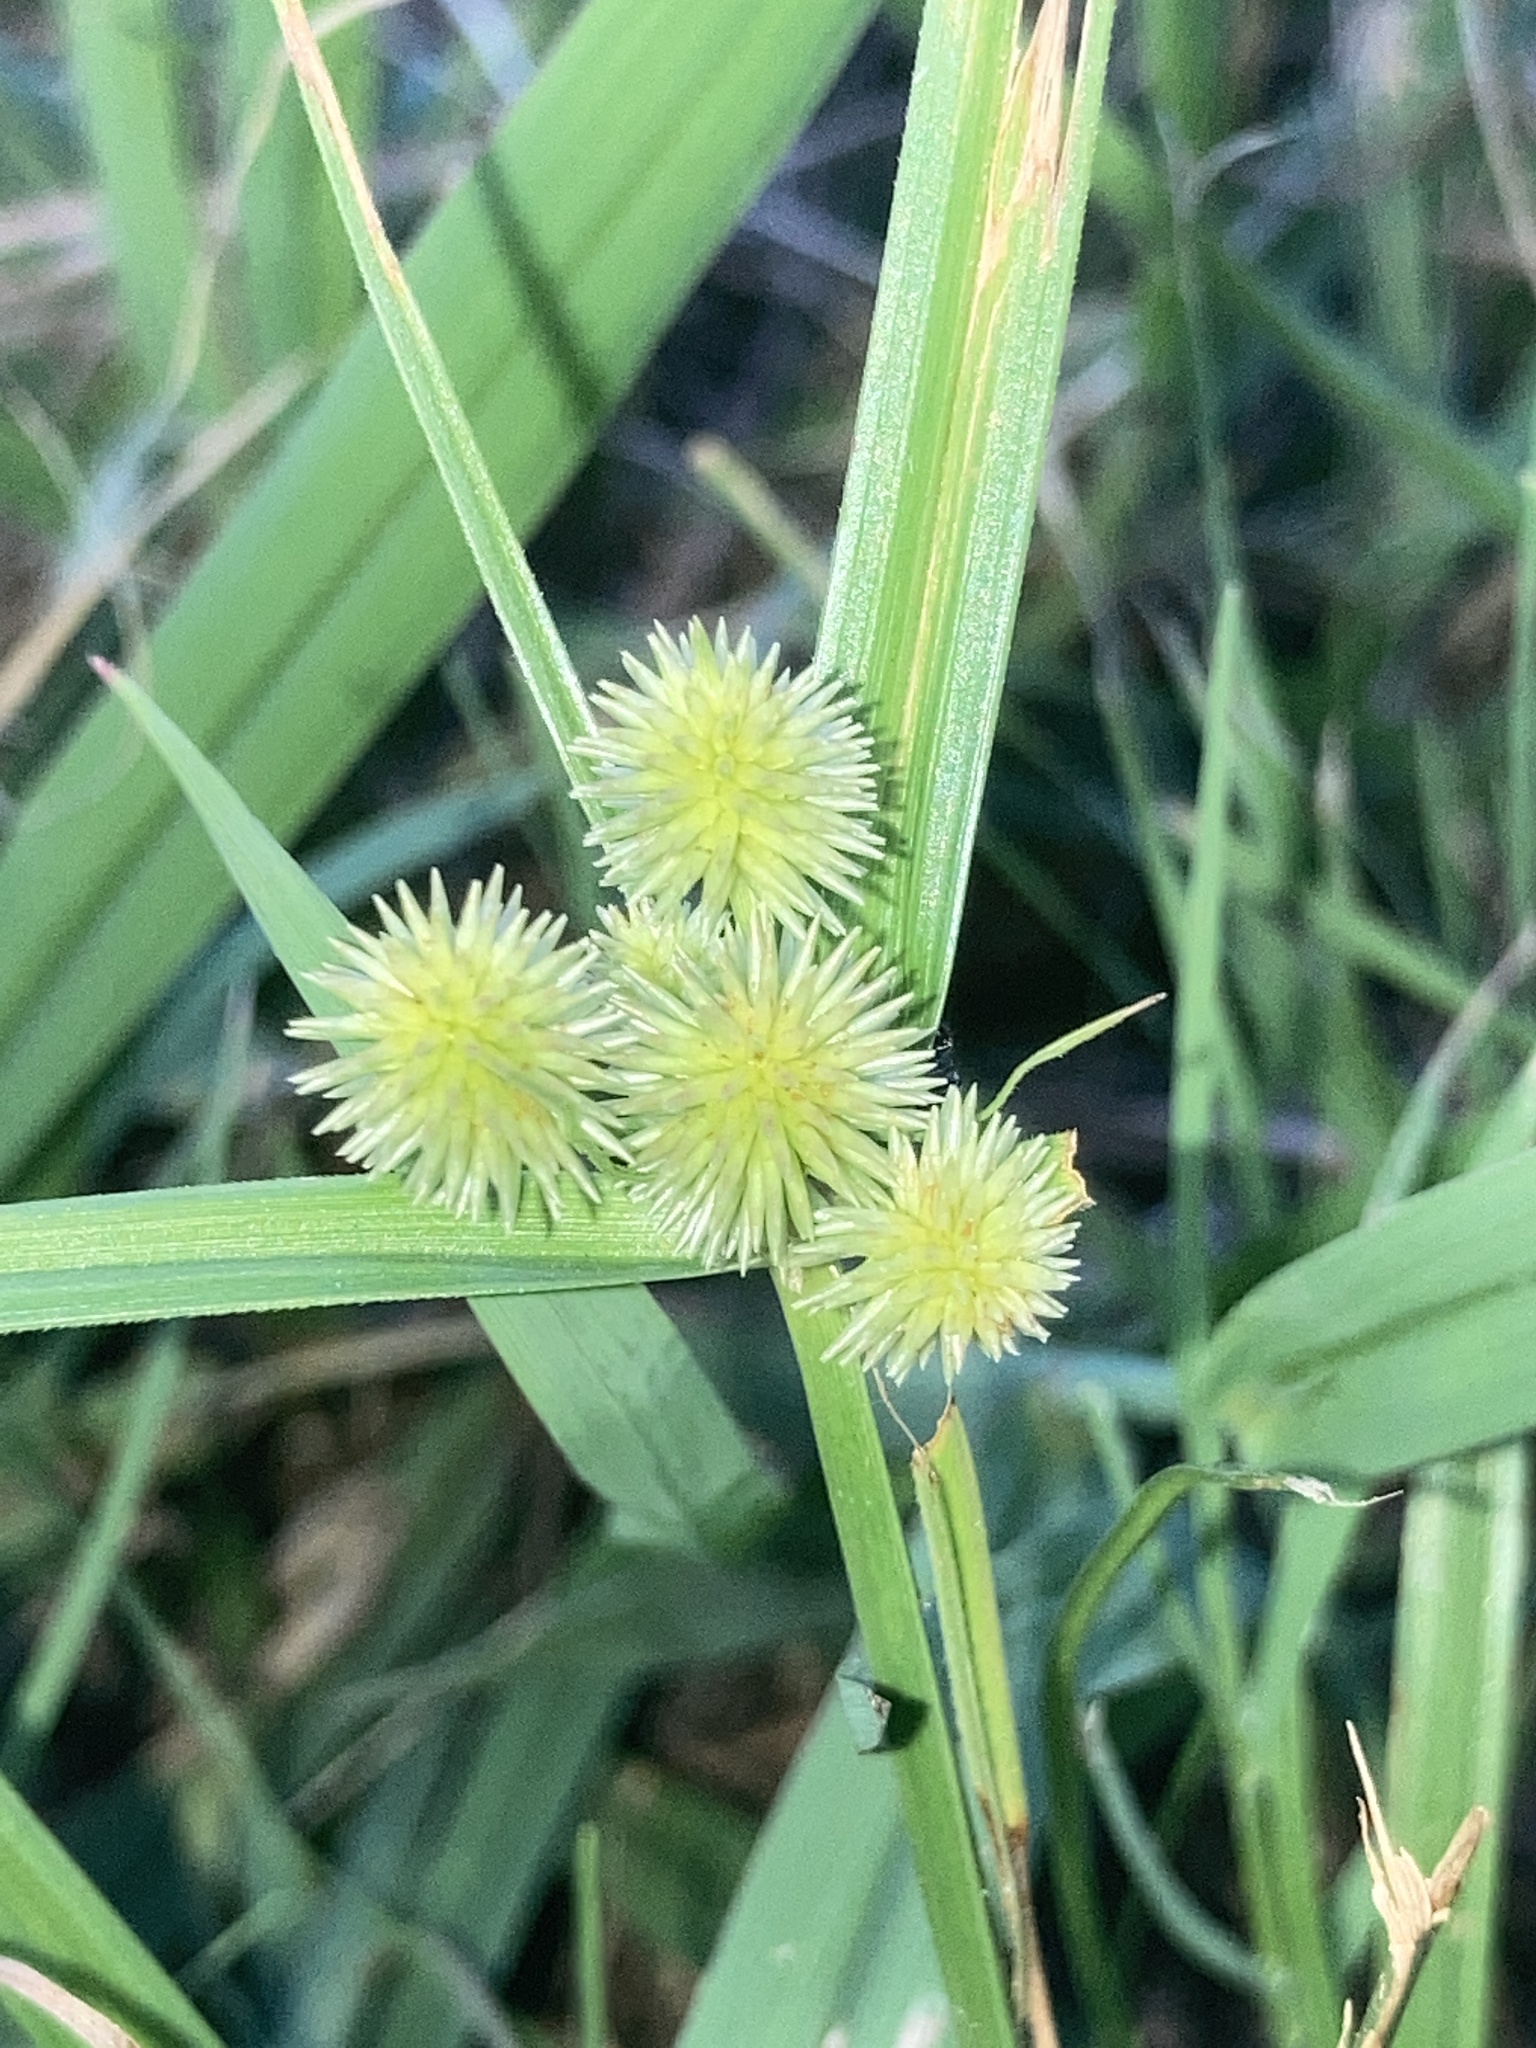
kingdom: Plantae
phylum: Tracheophyta
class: Liliopsida
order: Poales
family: Cyperaceae
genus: Cyperus
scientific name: Cyperus echinatus
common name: Teasel sedge
